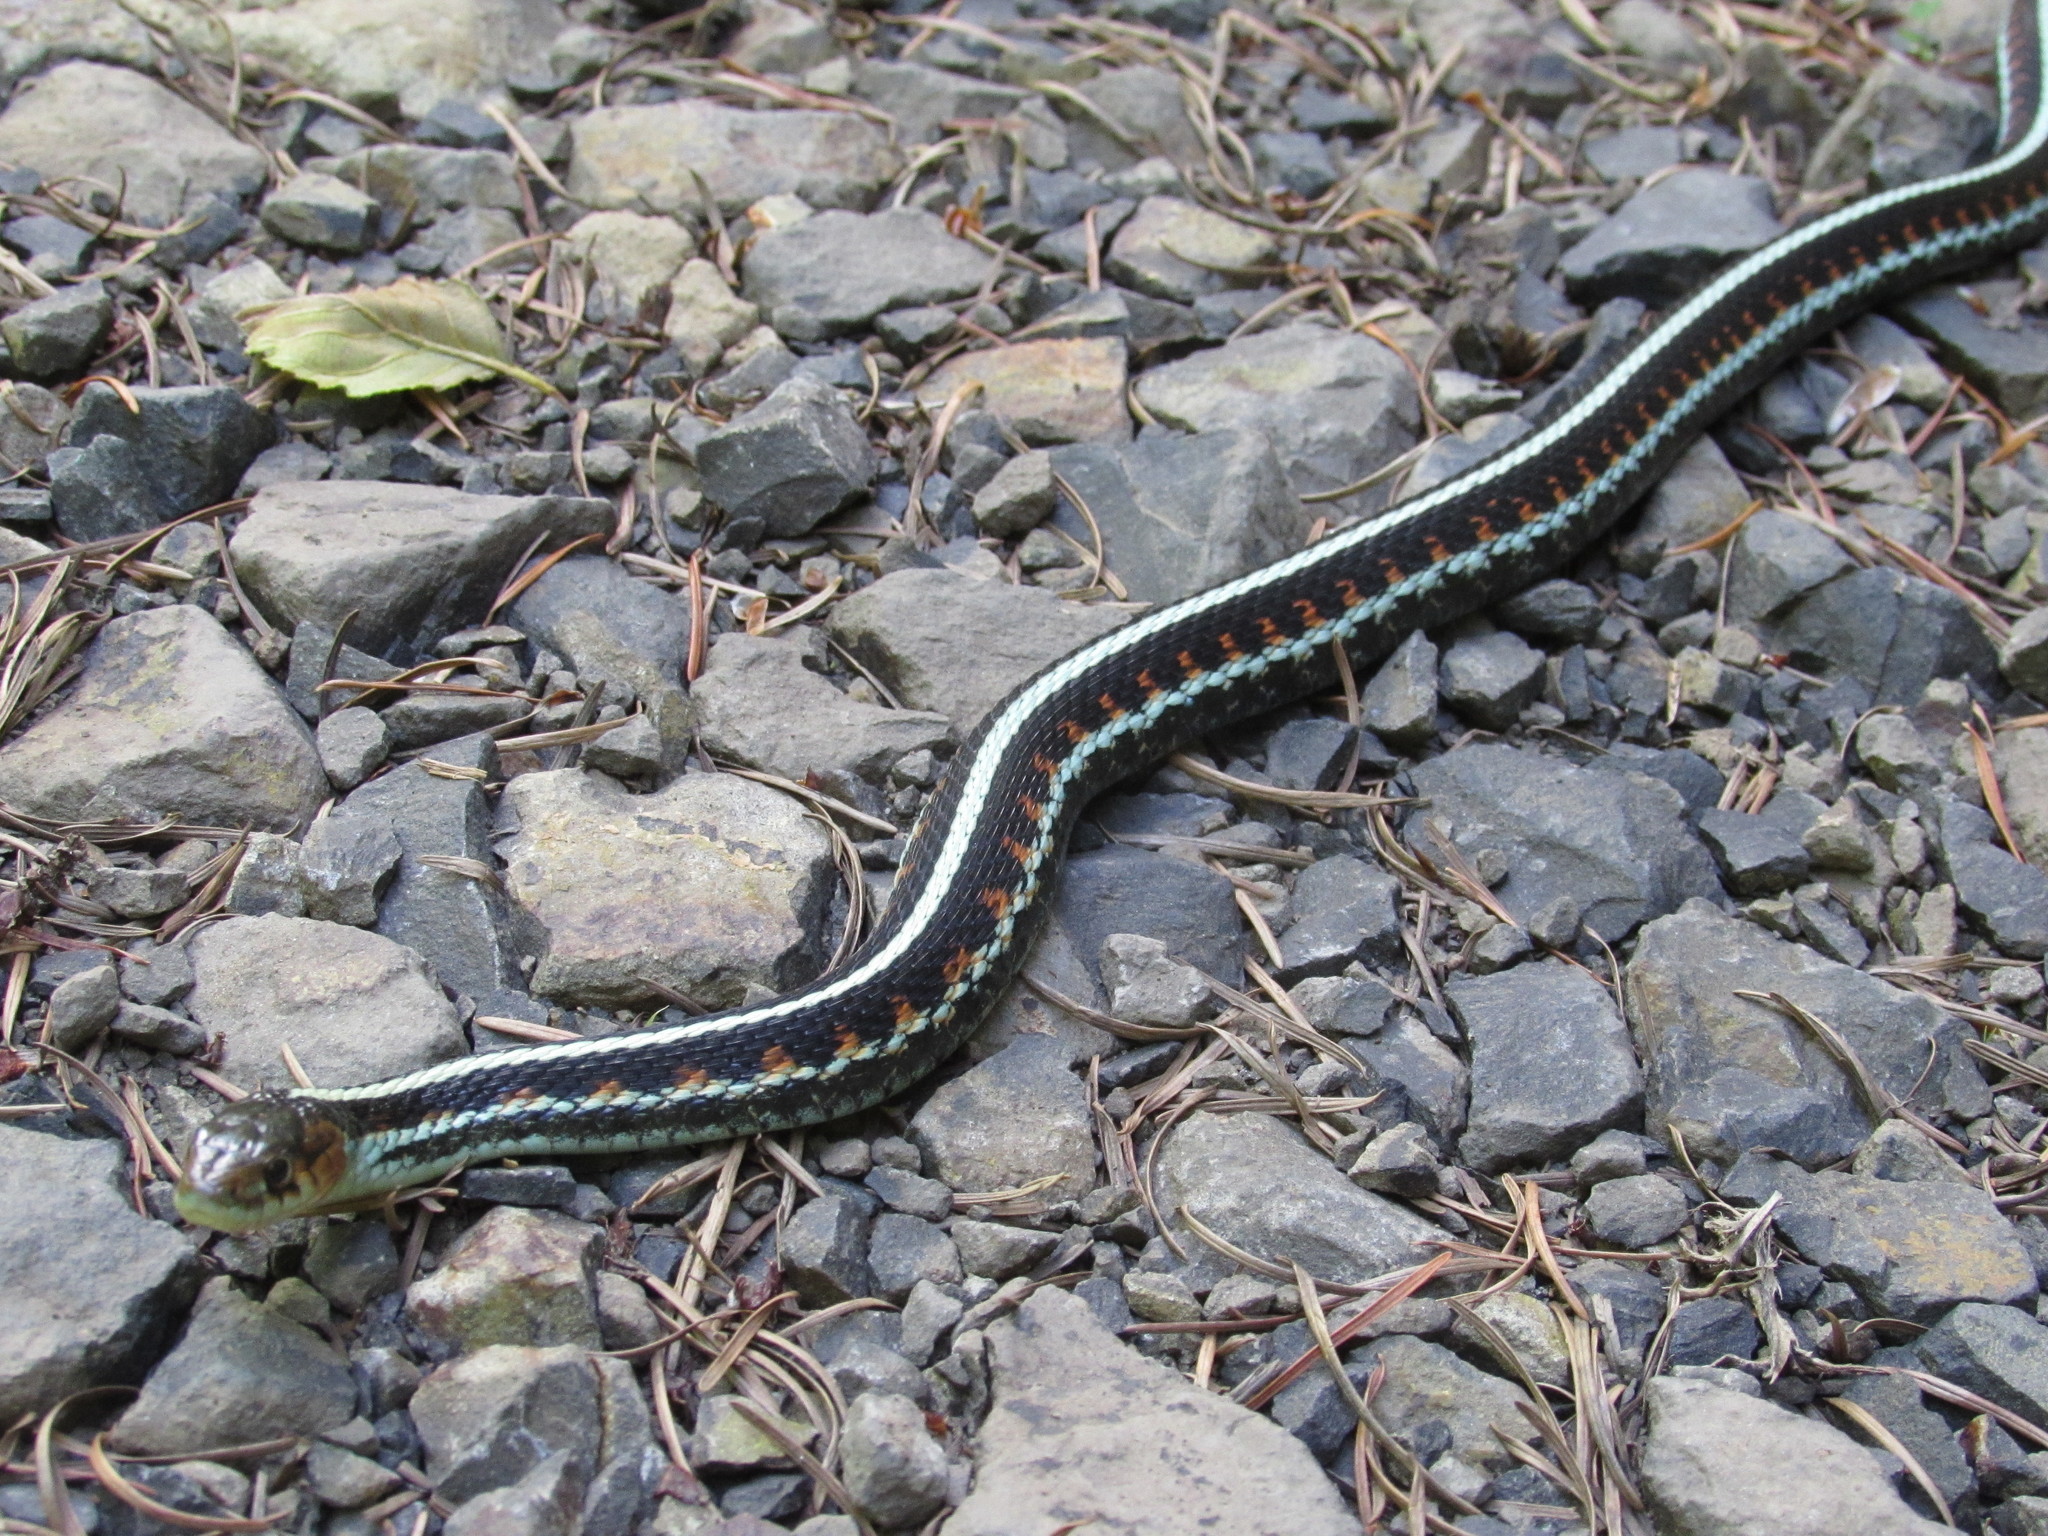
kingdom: Animalia
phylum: Chordata
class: Squamata
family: Colubridae
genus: Thamnophis
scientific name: Thamnophis sirtalis
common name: Common garter snake
